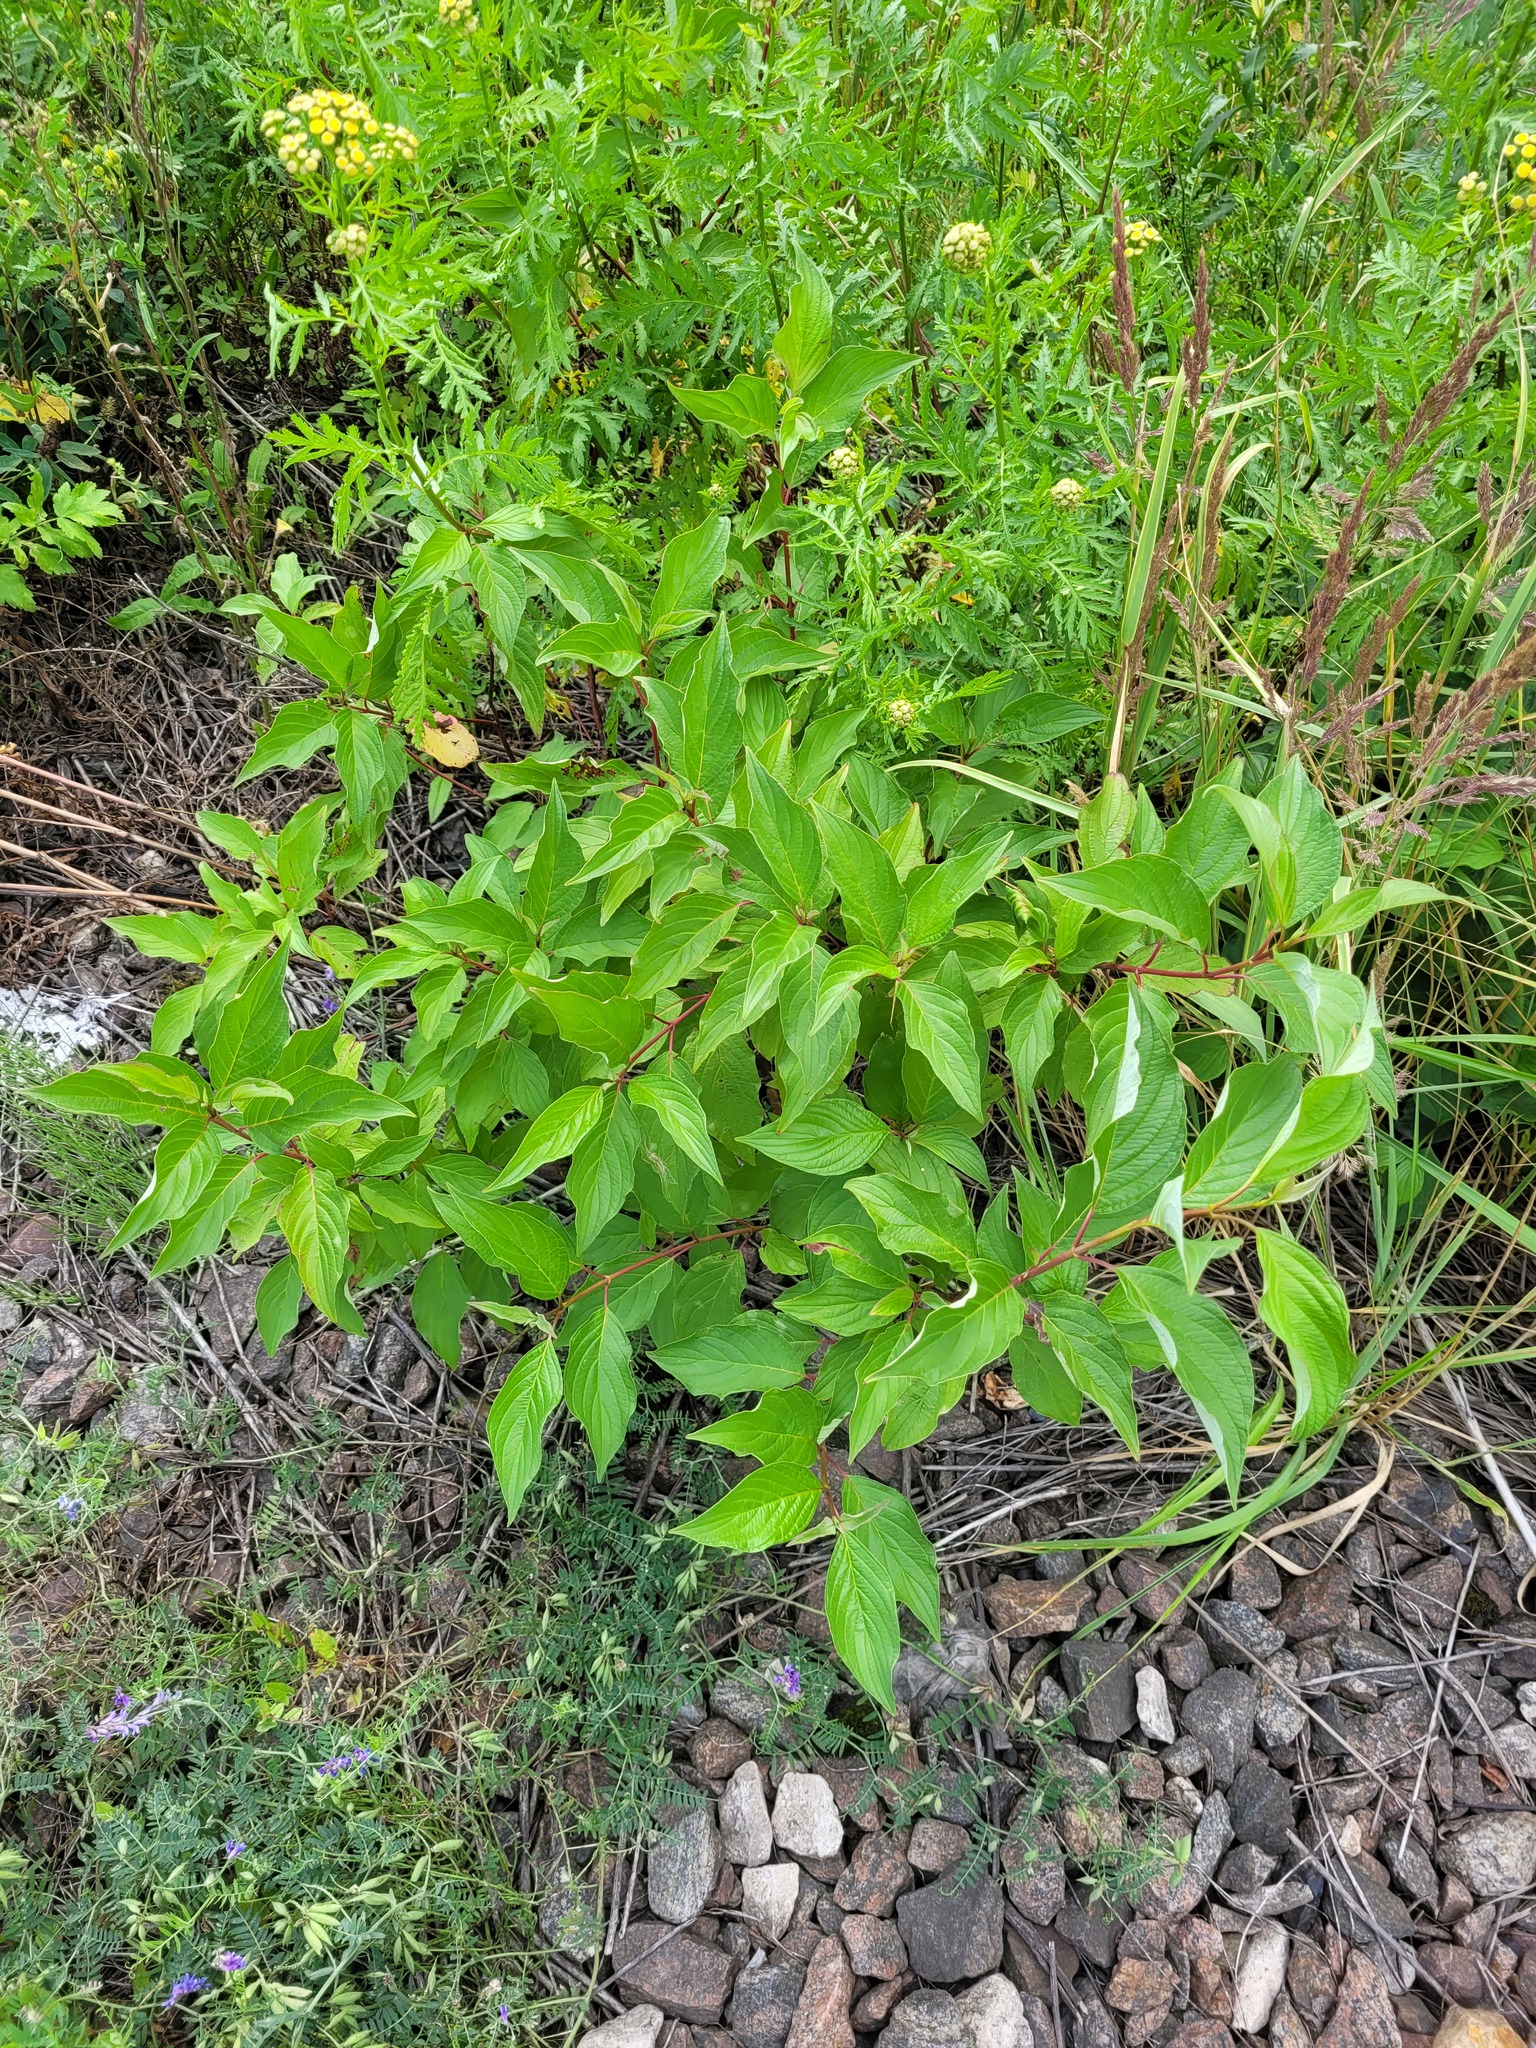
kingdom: Plantae
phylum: Tracheophyta
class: Magnoliopsida
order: Cornales
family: Cornaceae
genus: Cornus
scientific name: Cornus alba
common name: White dogwood
